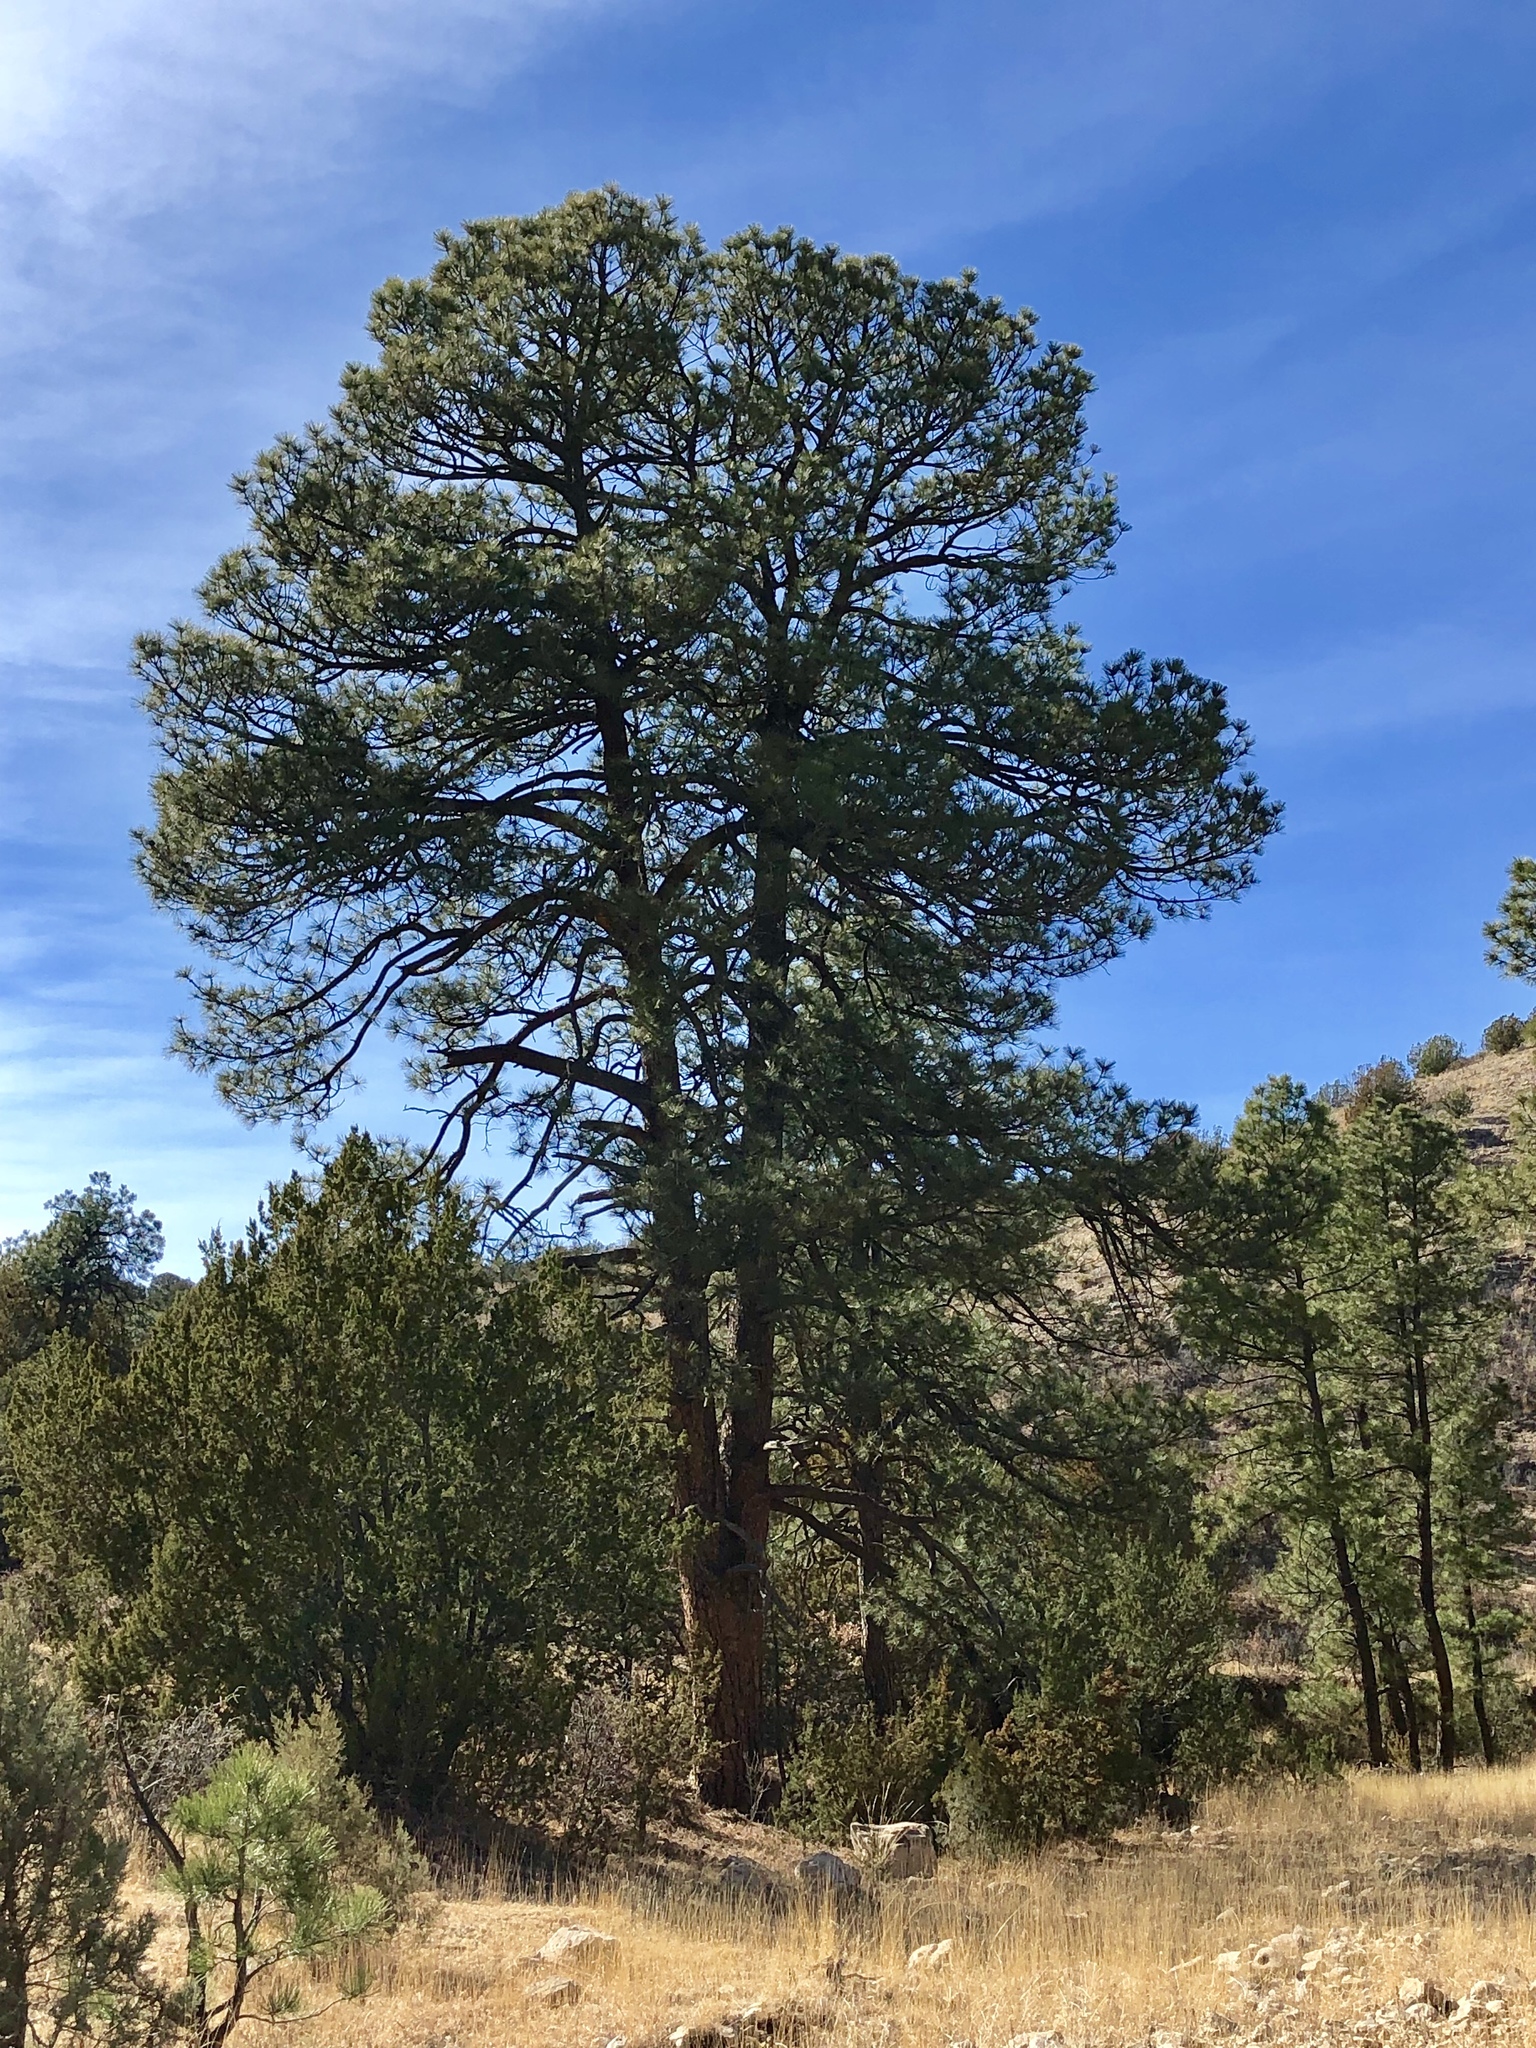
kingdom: Plantae
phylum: Tracheophyta
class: Pinopsida
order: Pinales
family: Pinaceae
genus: Pinus
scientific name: Pinus ponderosa
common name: Western yellow-pine
